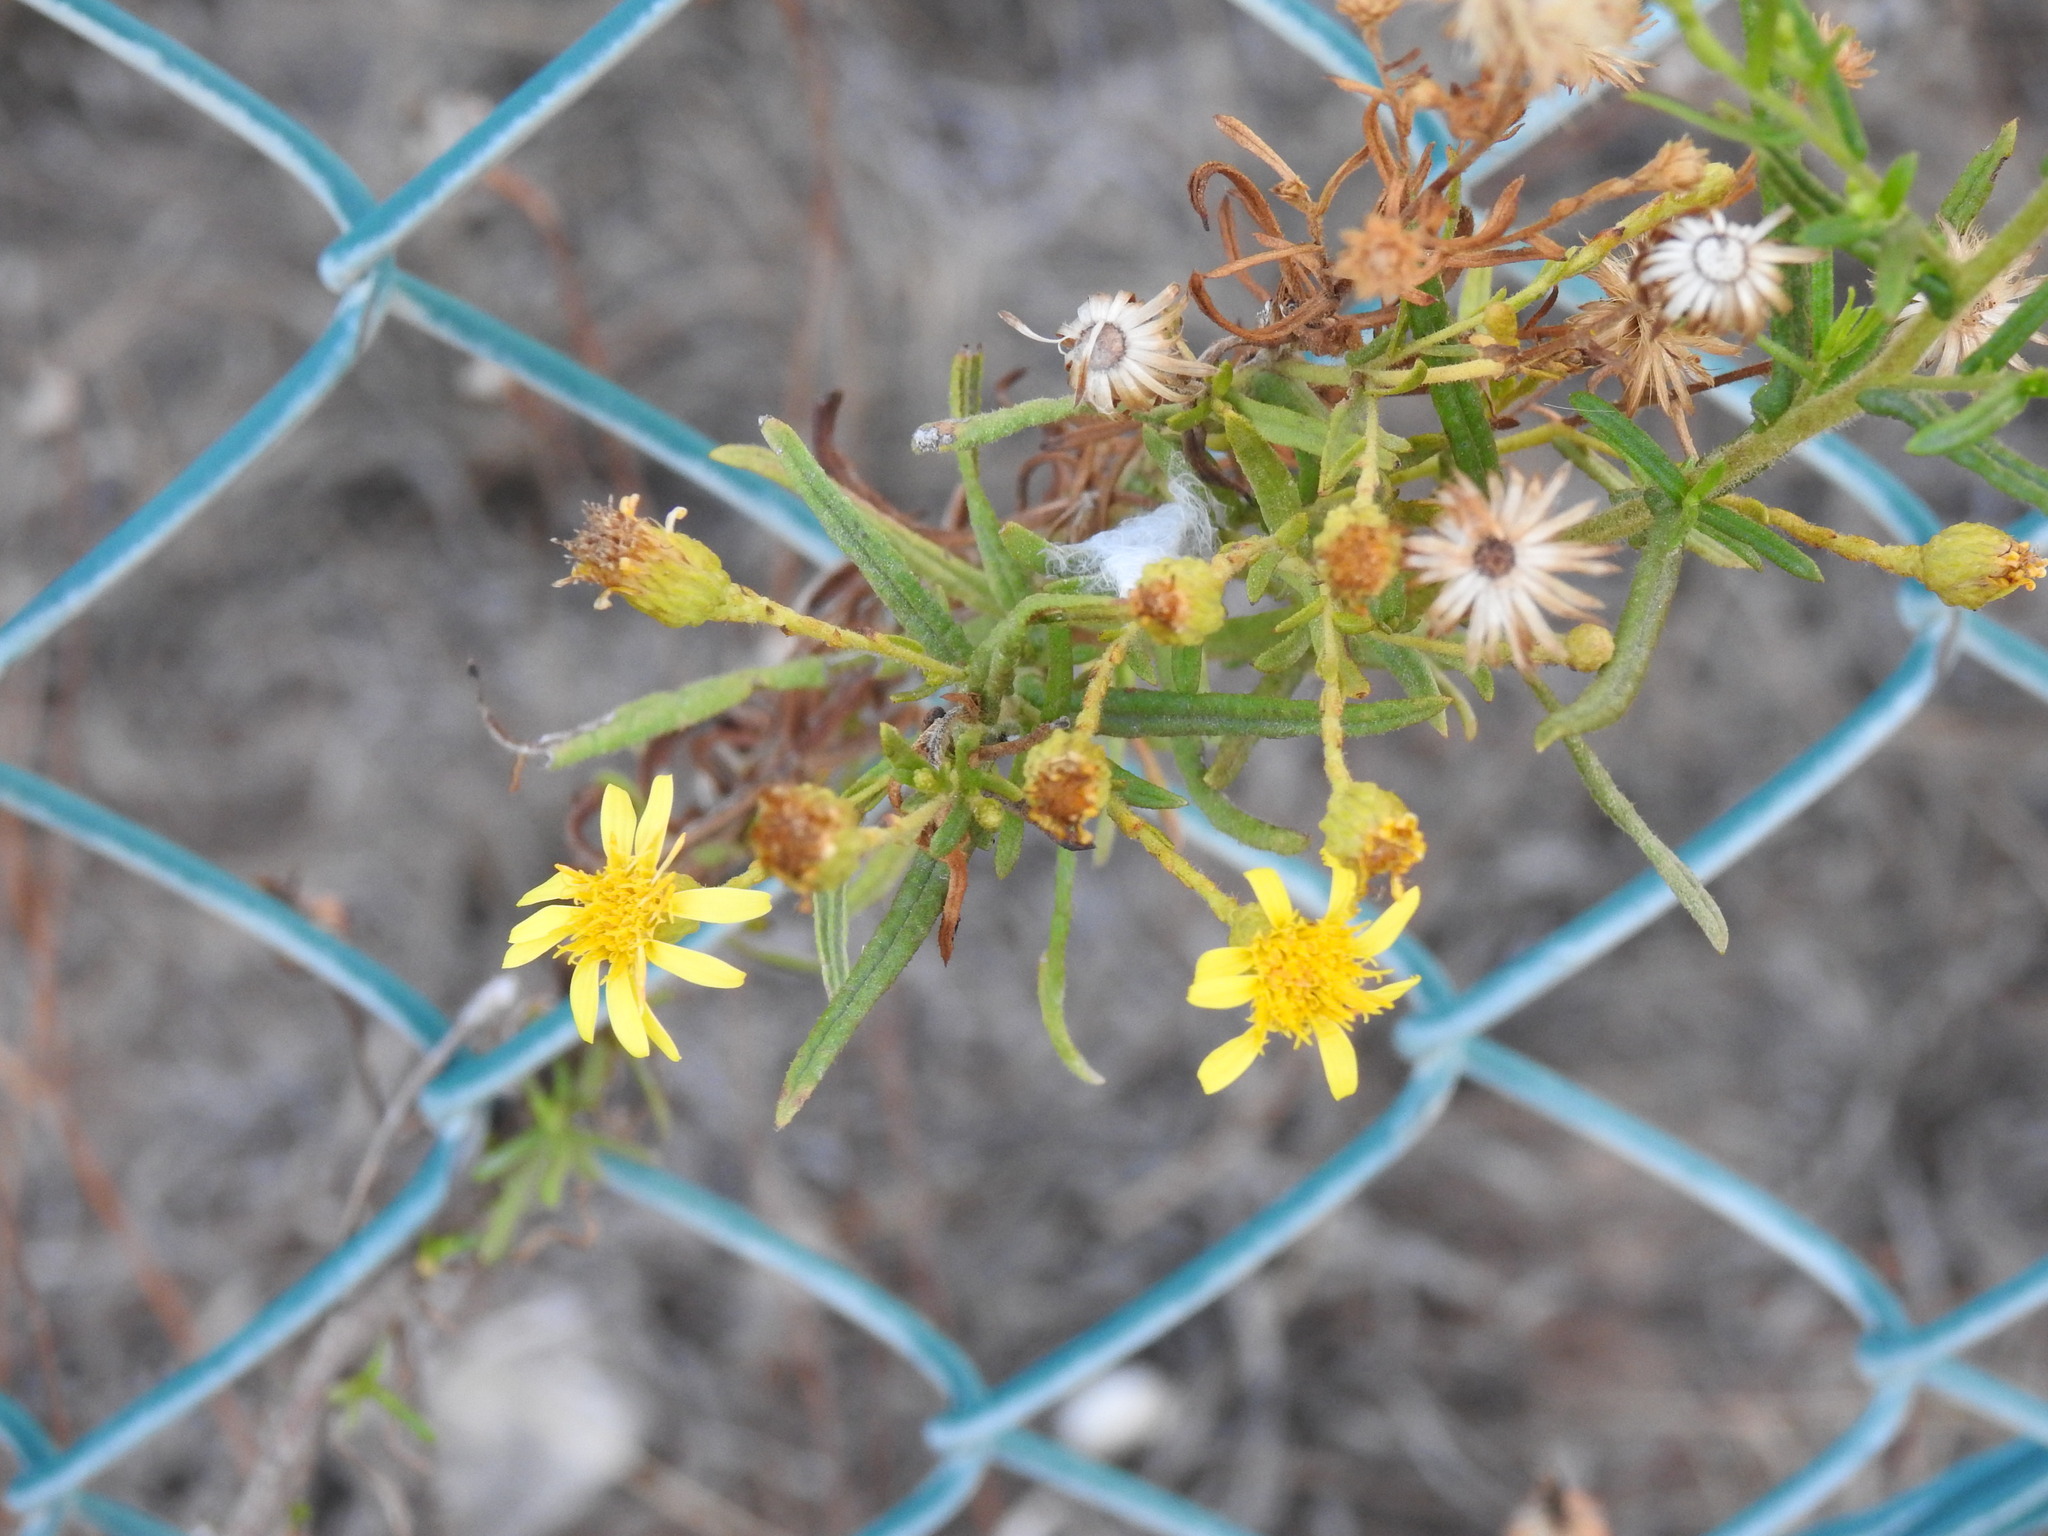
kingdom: Plantae
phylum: Tracheophyta
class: Magnoliopsida
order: Asterales
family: Asteraceae
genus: Dittrichia
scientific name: Dittrichia viscosa
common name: Woody fleabane
